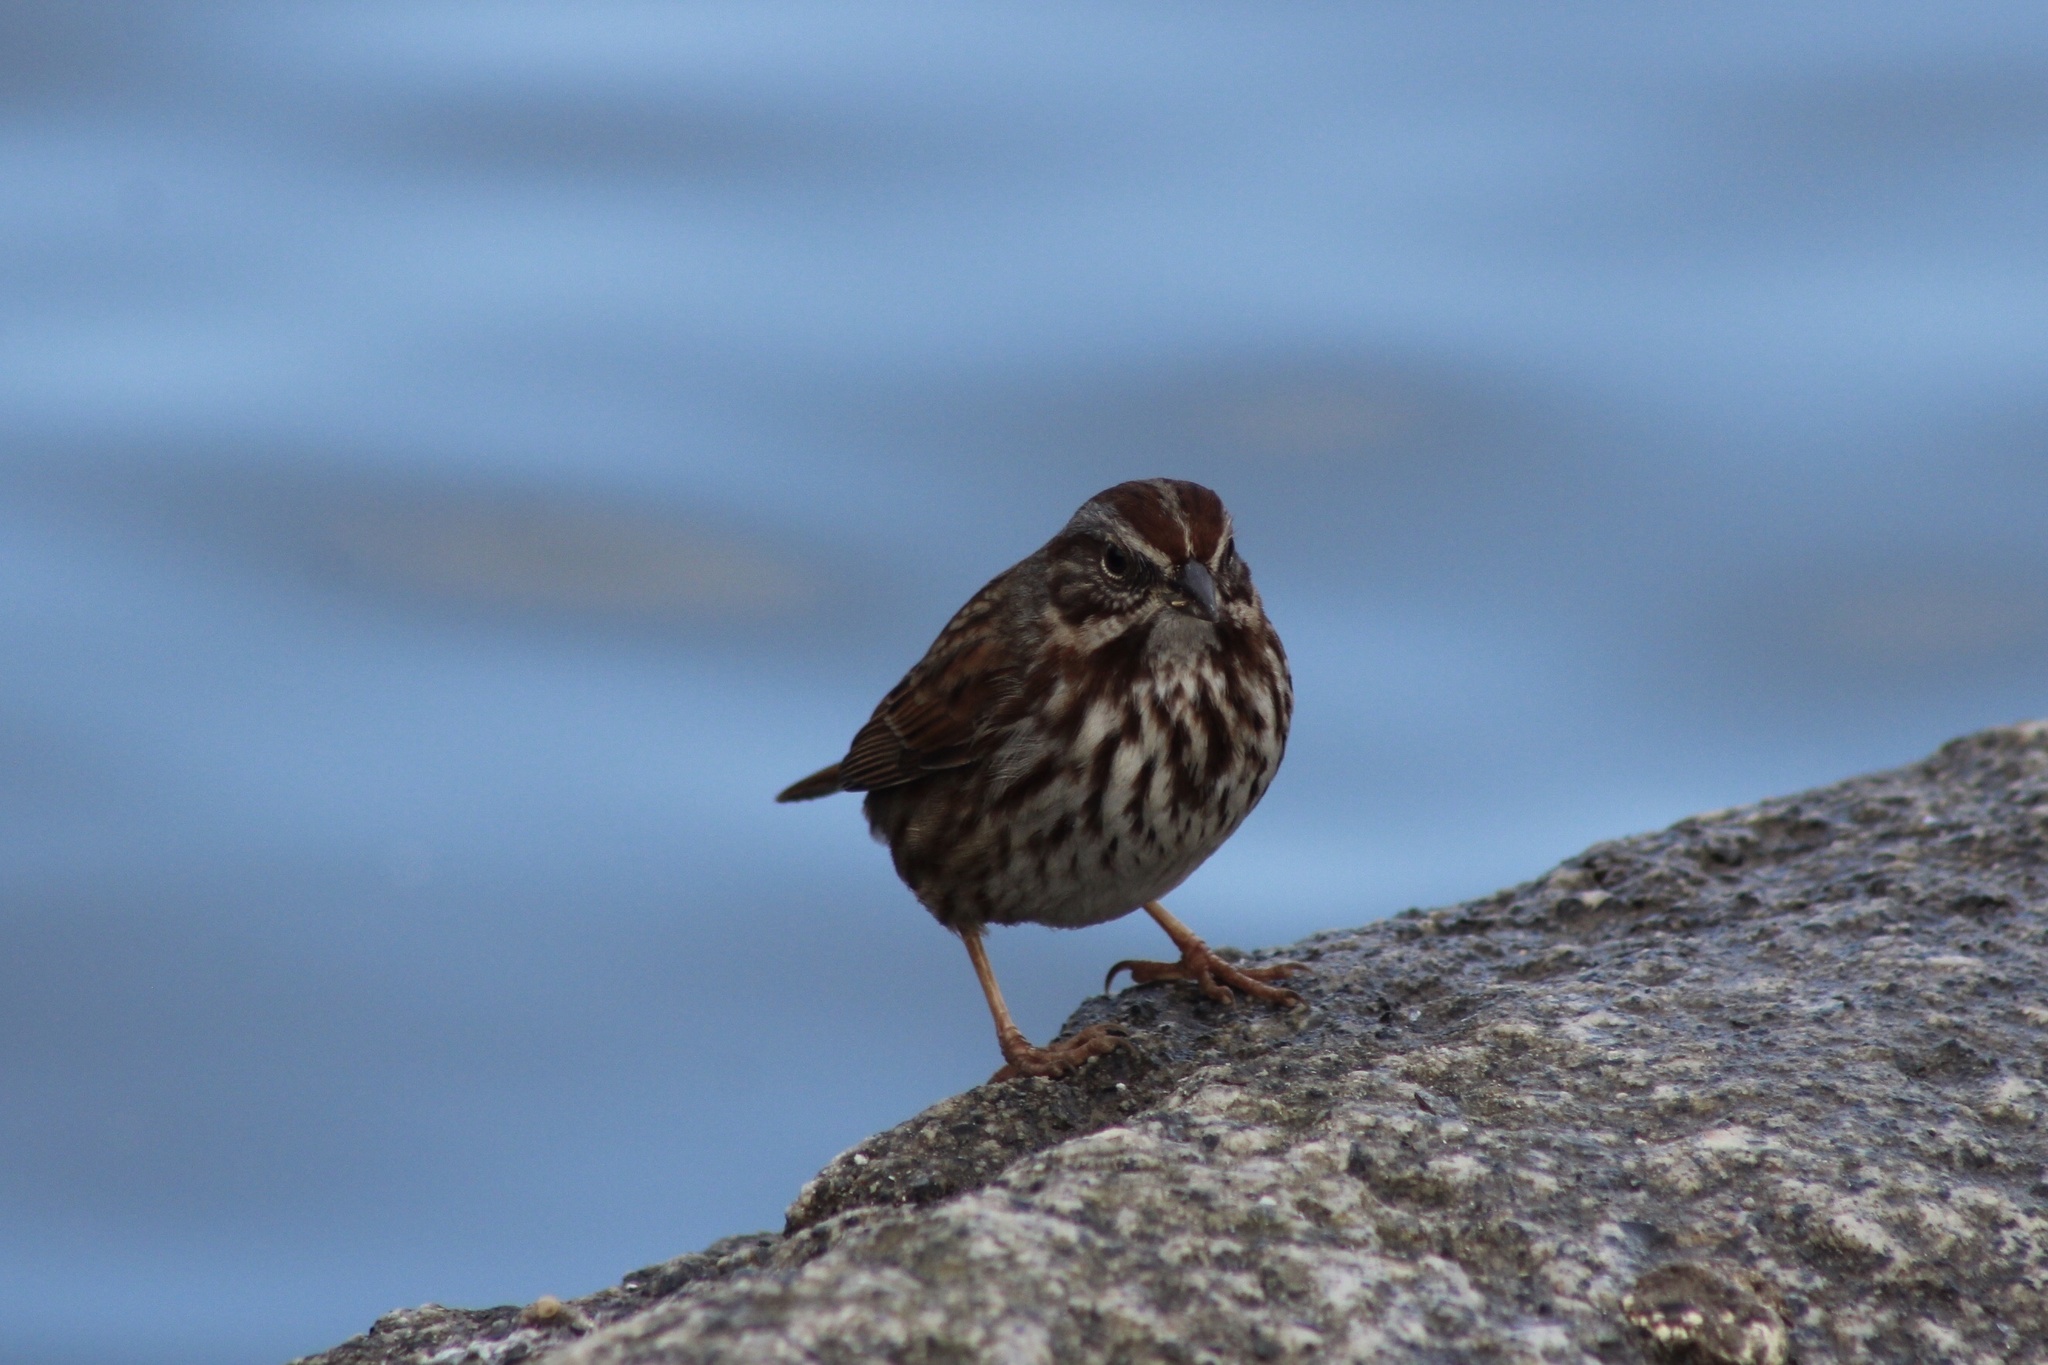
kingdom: Animalia
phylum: Chordata
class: Aves
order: Passeriformes
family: Passerellidae
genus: Melospiza
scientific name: Melospiza melodia
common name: Song sparrow
